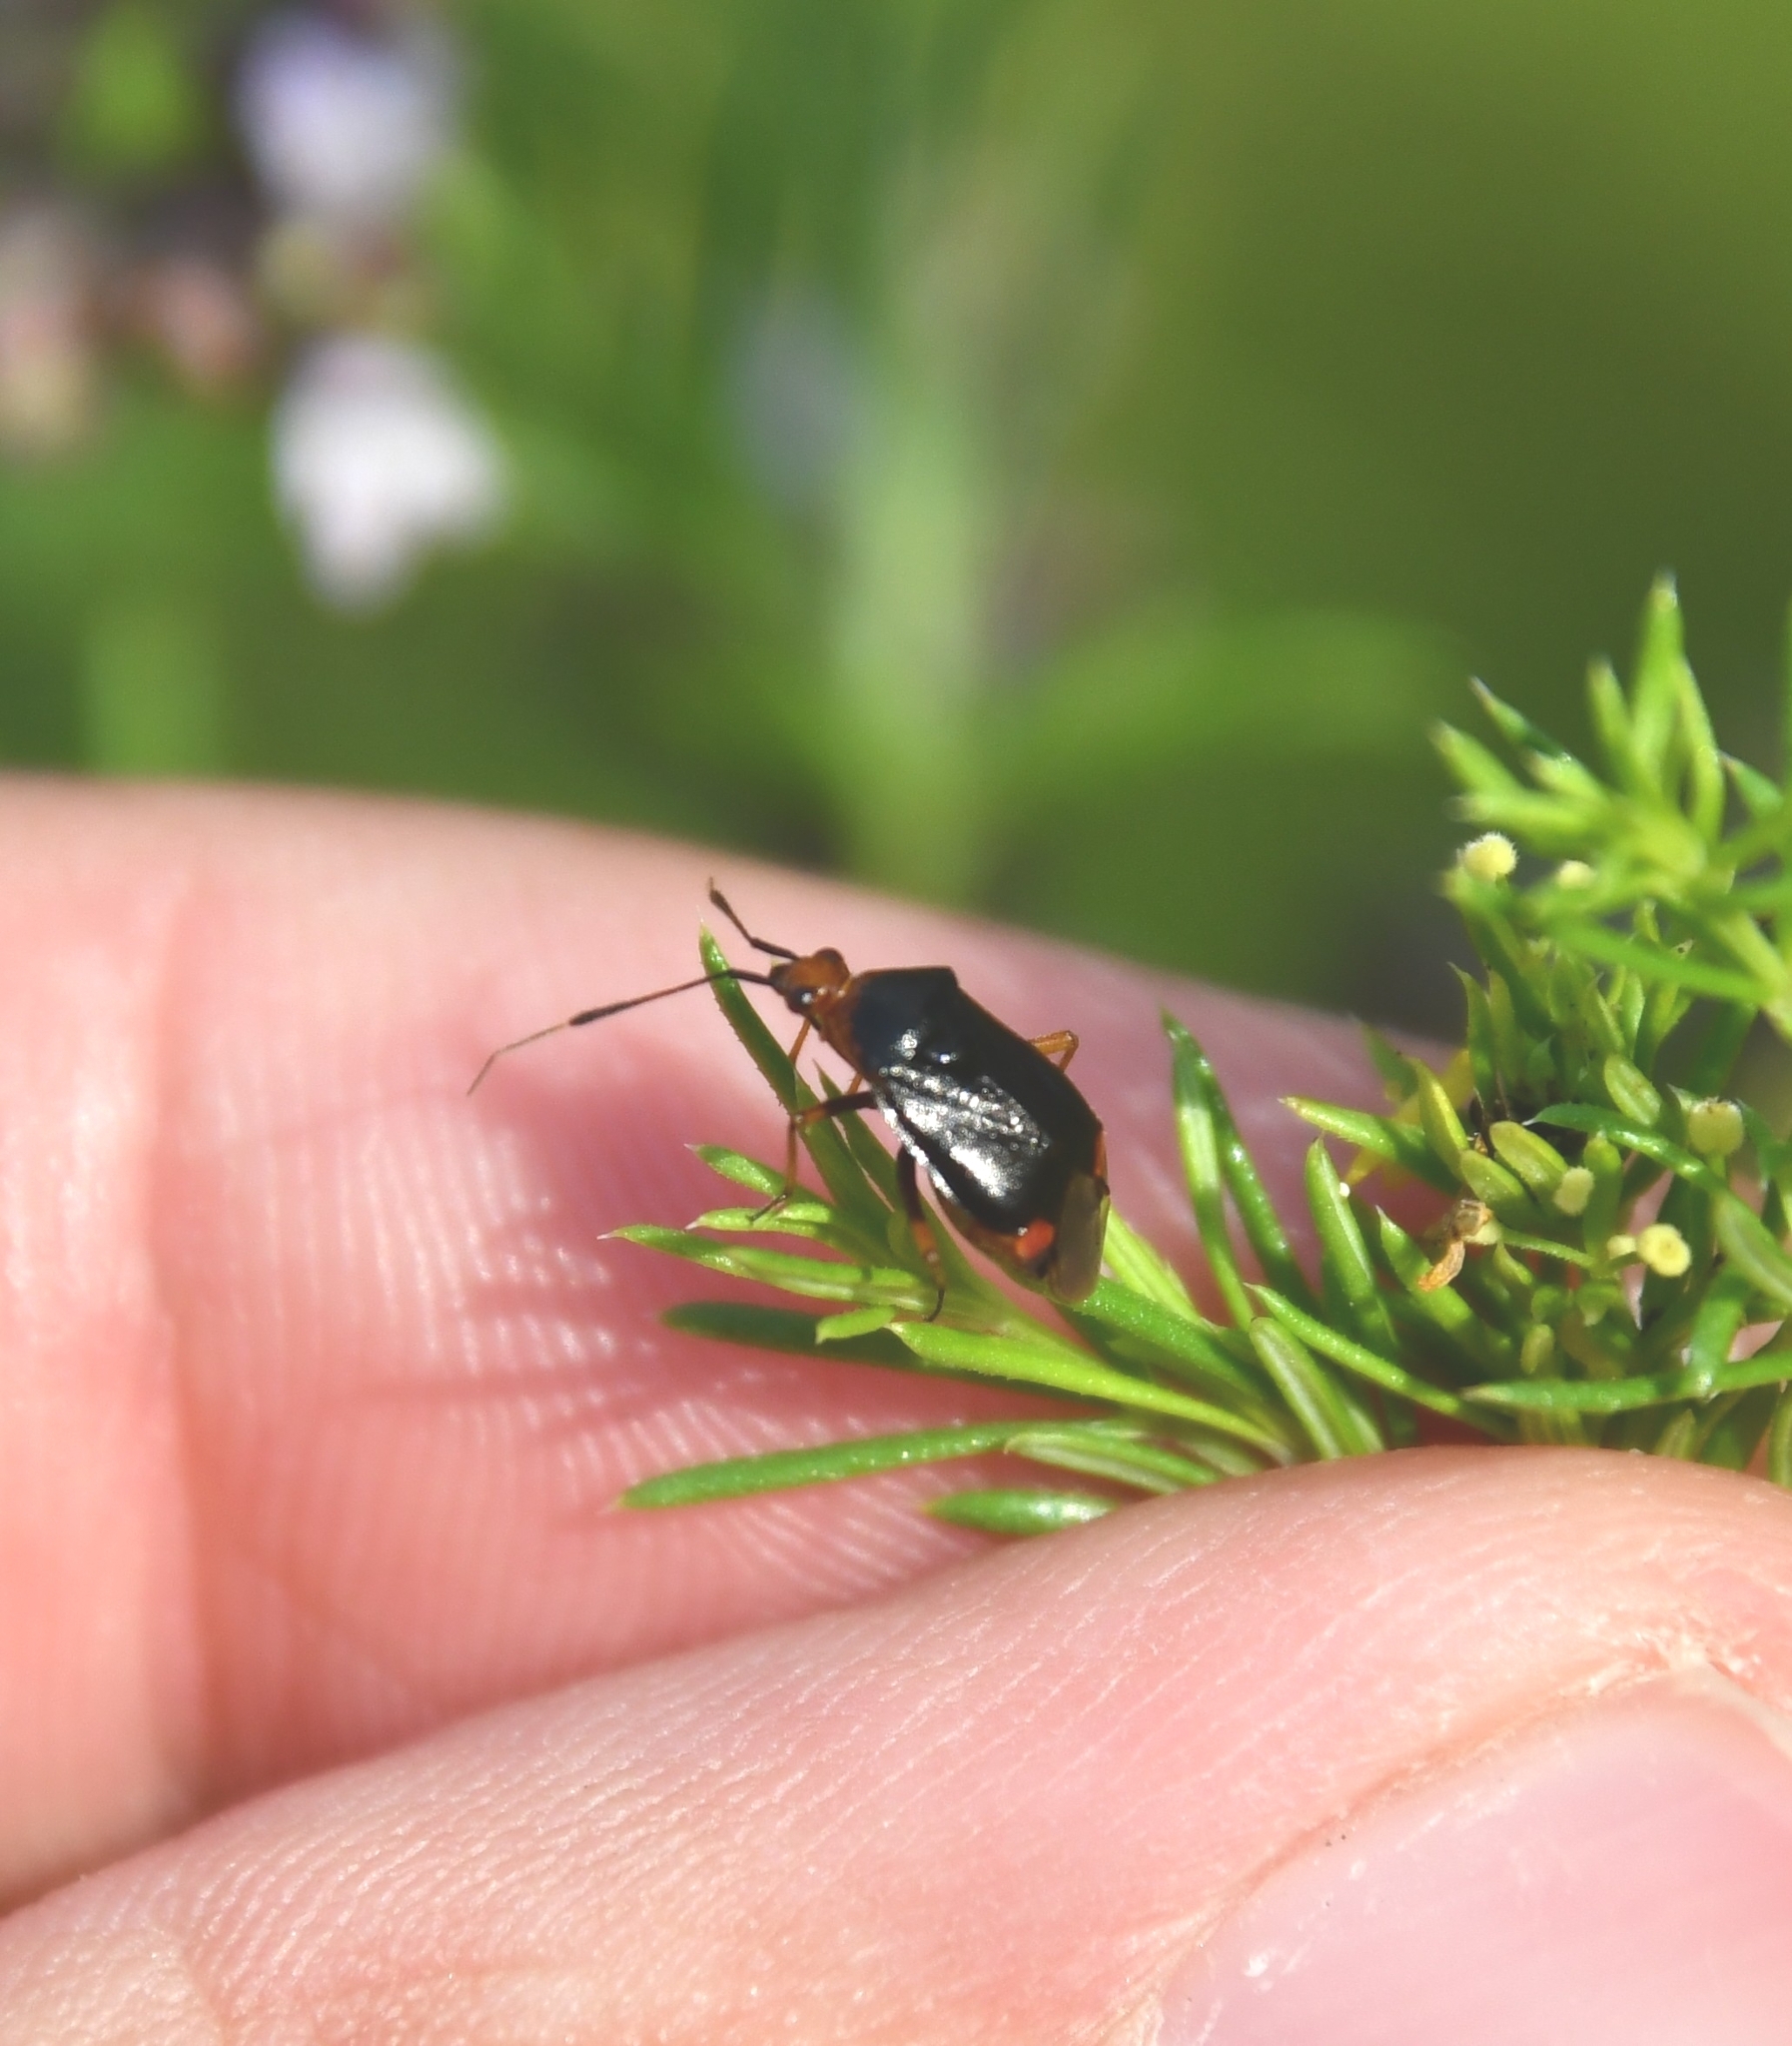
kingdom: Animalia
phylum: Arthropoda
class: Insecta
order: Hemiptera
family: Miridae
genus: Deraeocoris
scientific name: Deraeocoris ruber
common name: Plant bug
